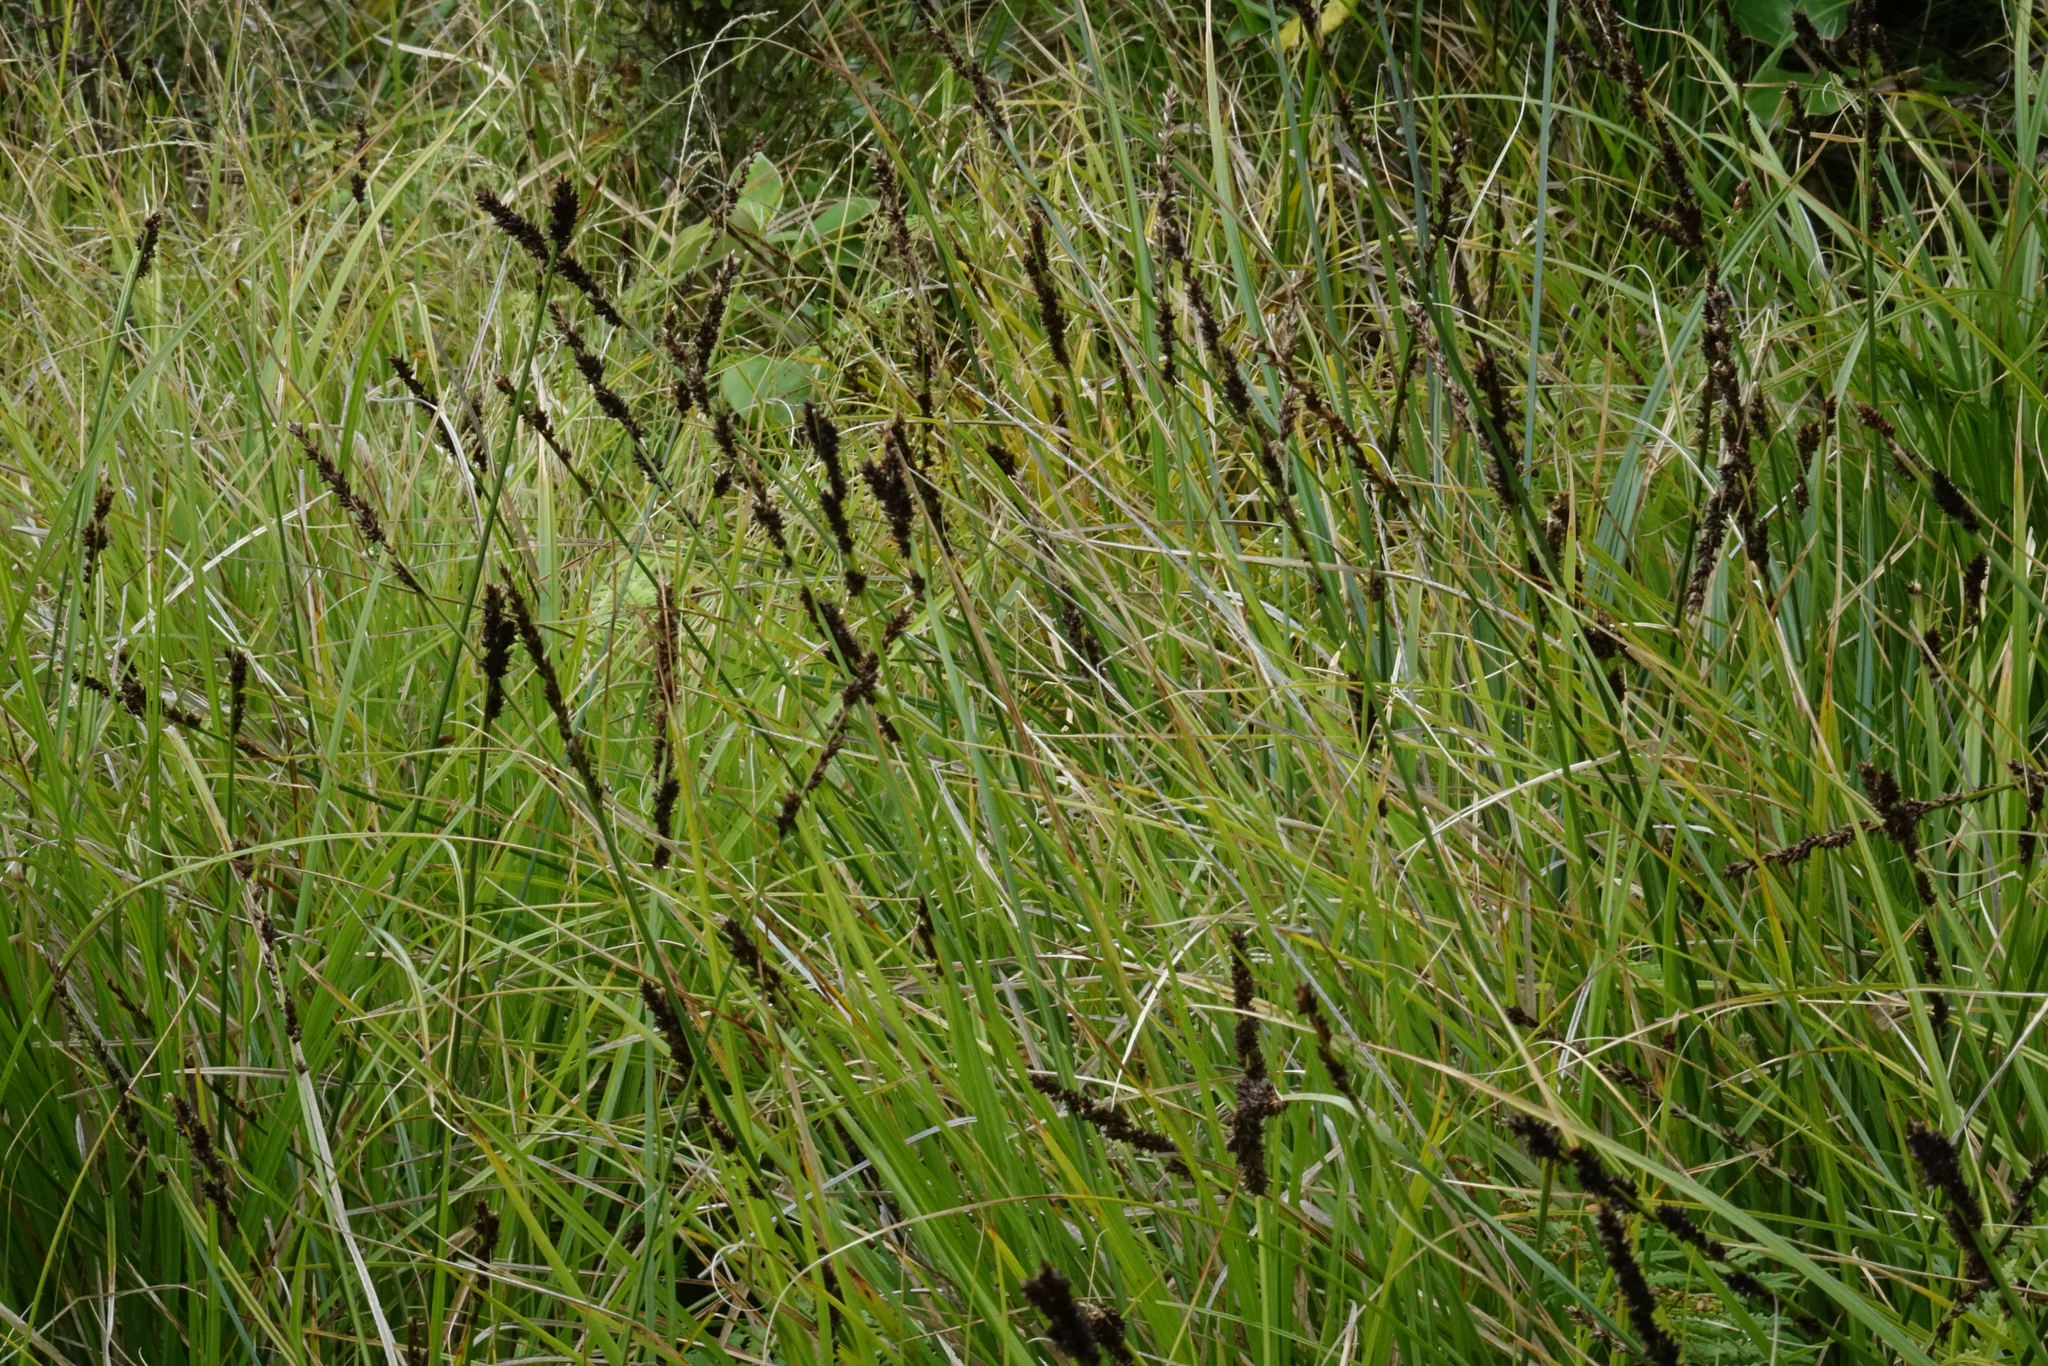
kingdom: Plantae
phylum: Tracheophyta
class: Liliopsida
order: Poales
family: Cyperaceae
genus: Carex
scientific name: Carex appressa
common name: Tussock sedge
